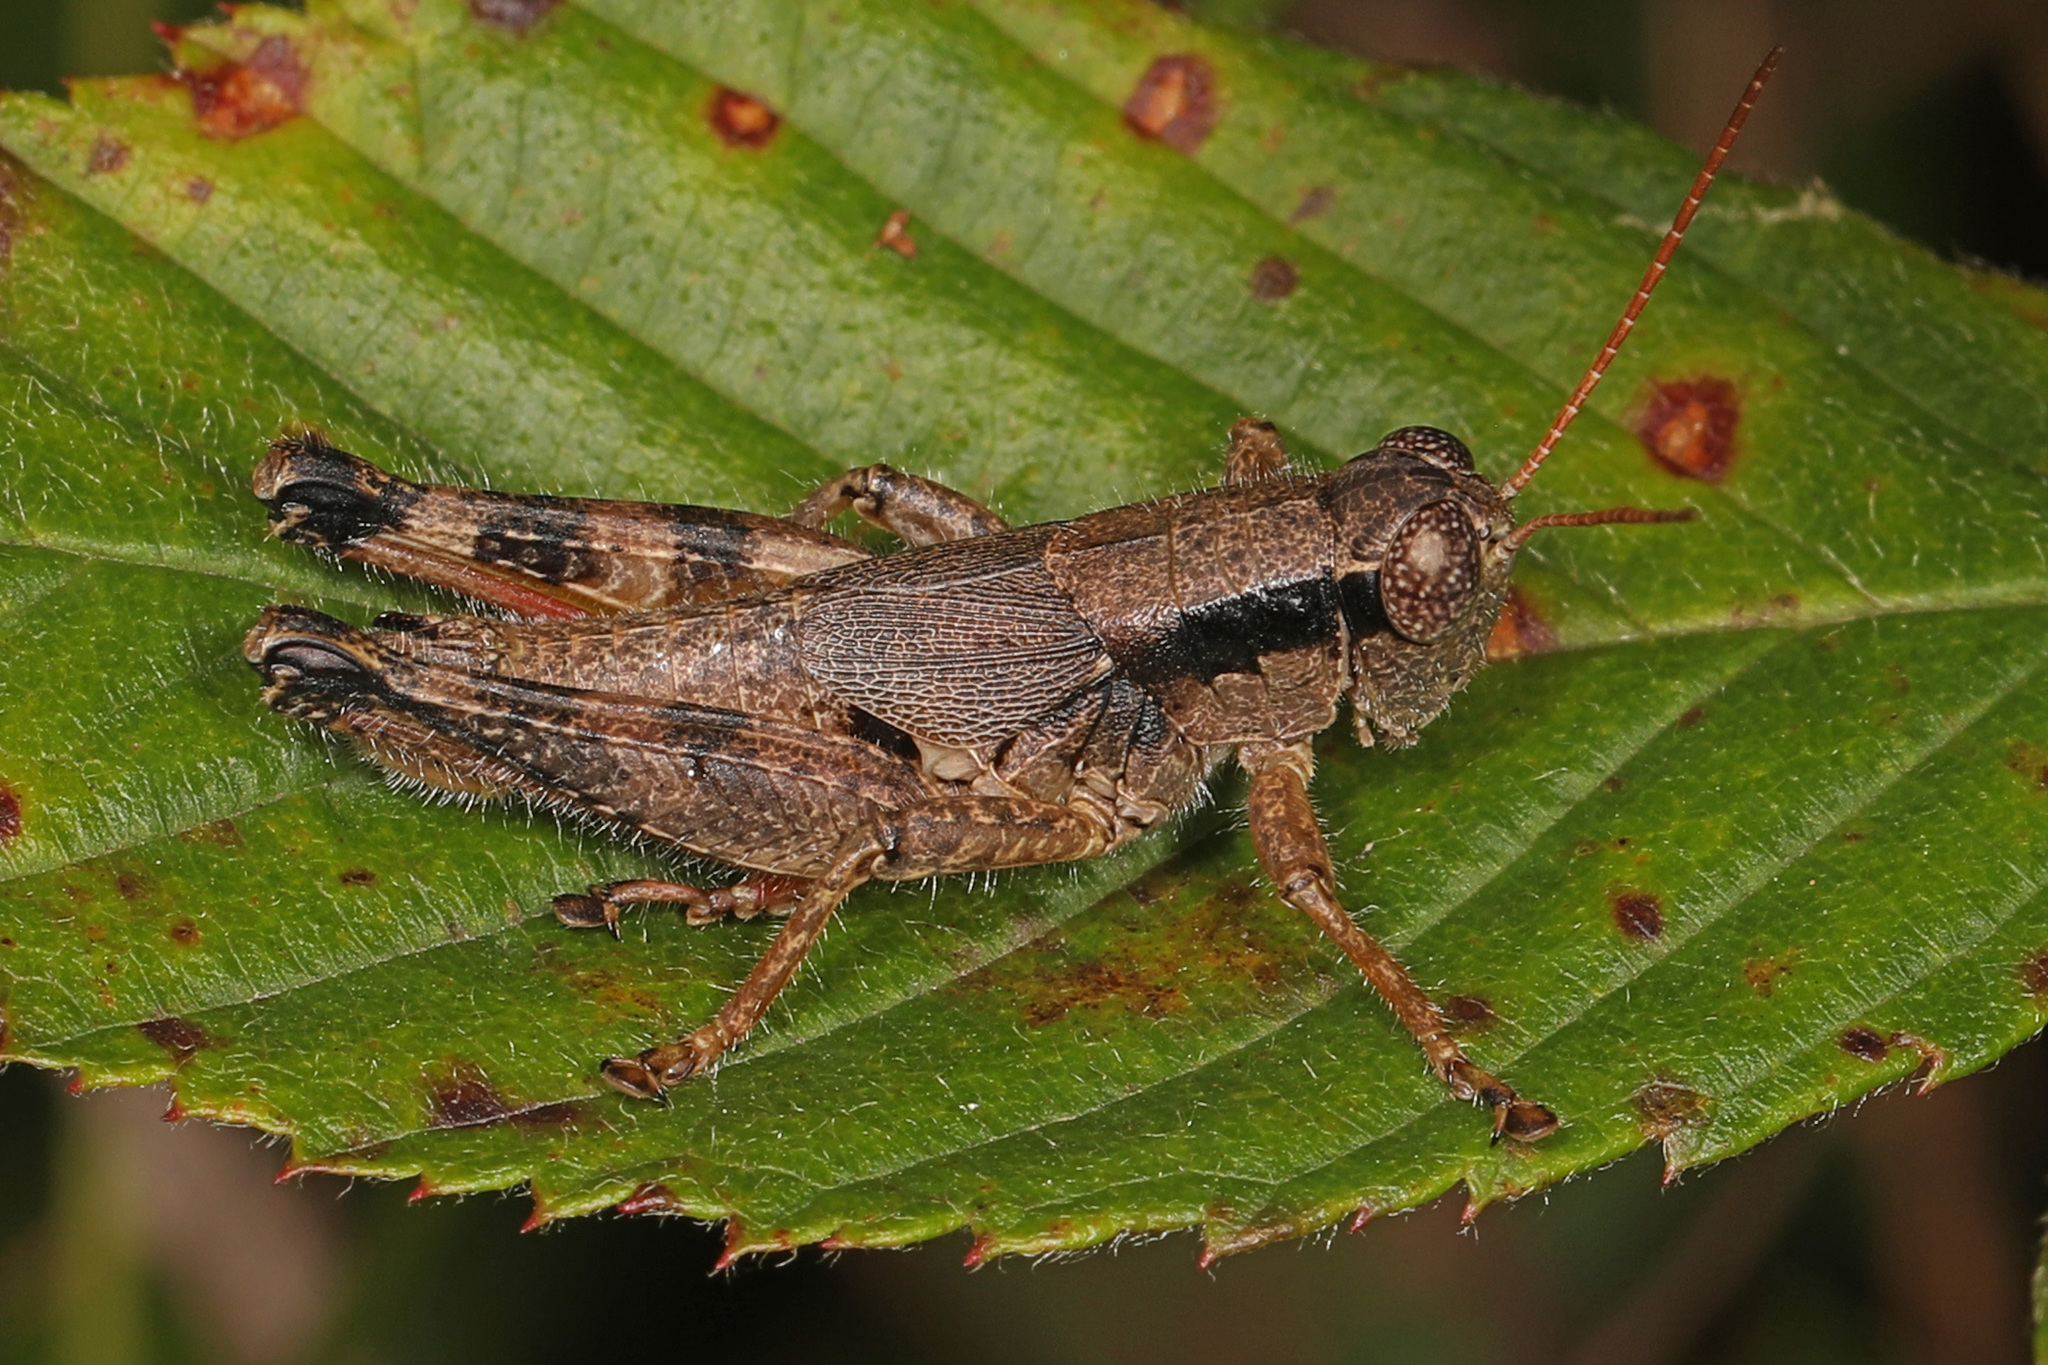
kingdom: Animalia
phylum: Arthropoda
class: Insecta
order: Orthoptera
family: Acrididae
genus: Melanoplus
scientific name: Melanoplus scudderi
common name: Scudder's short-winged locust
